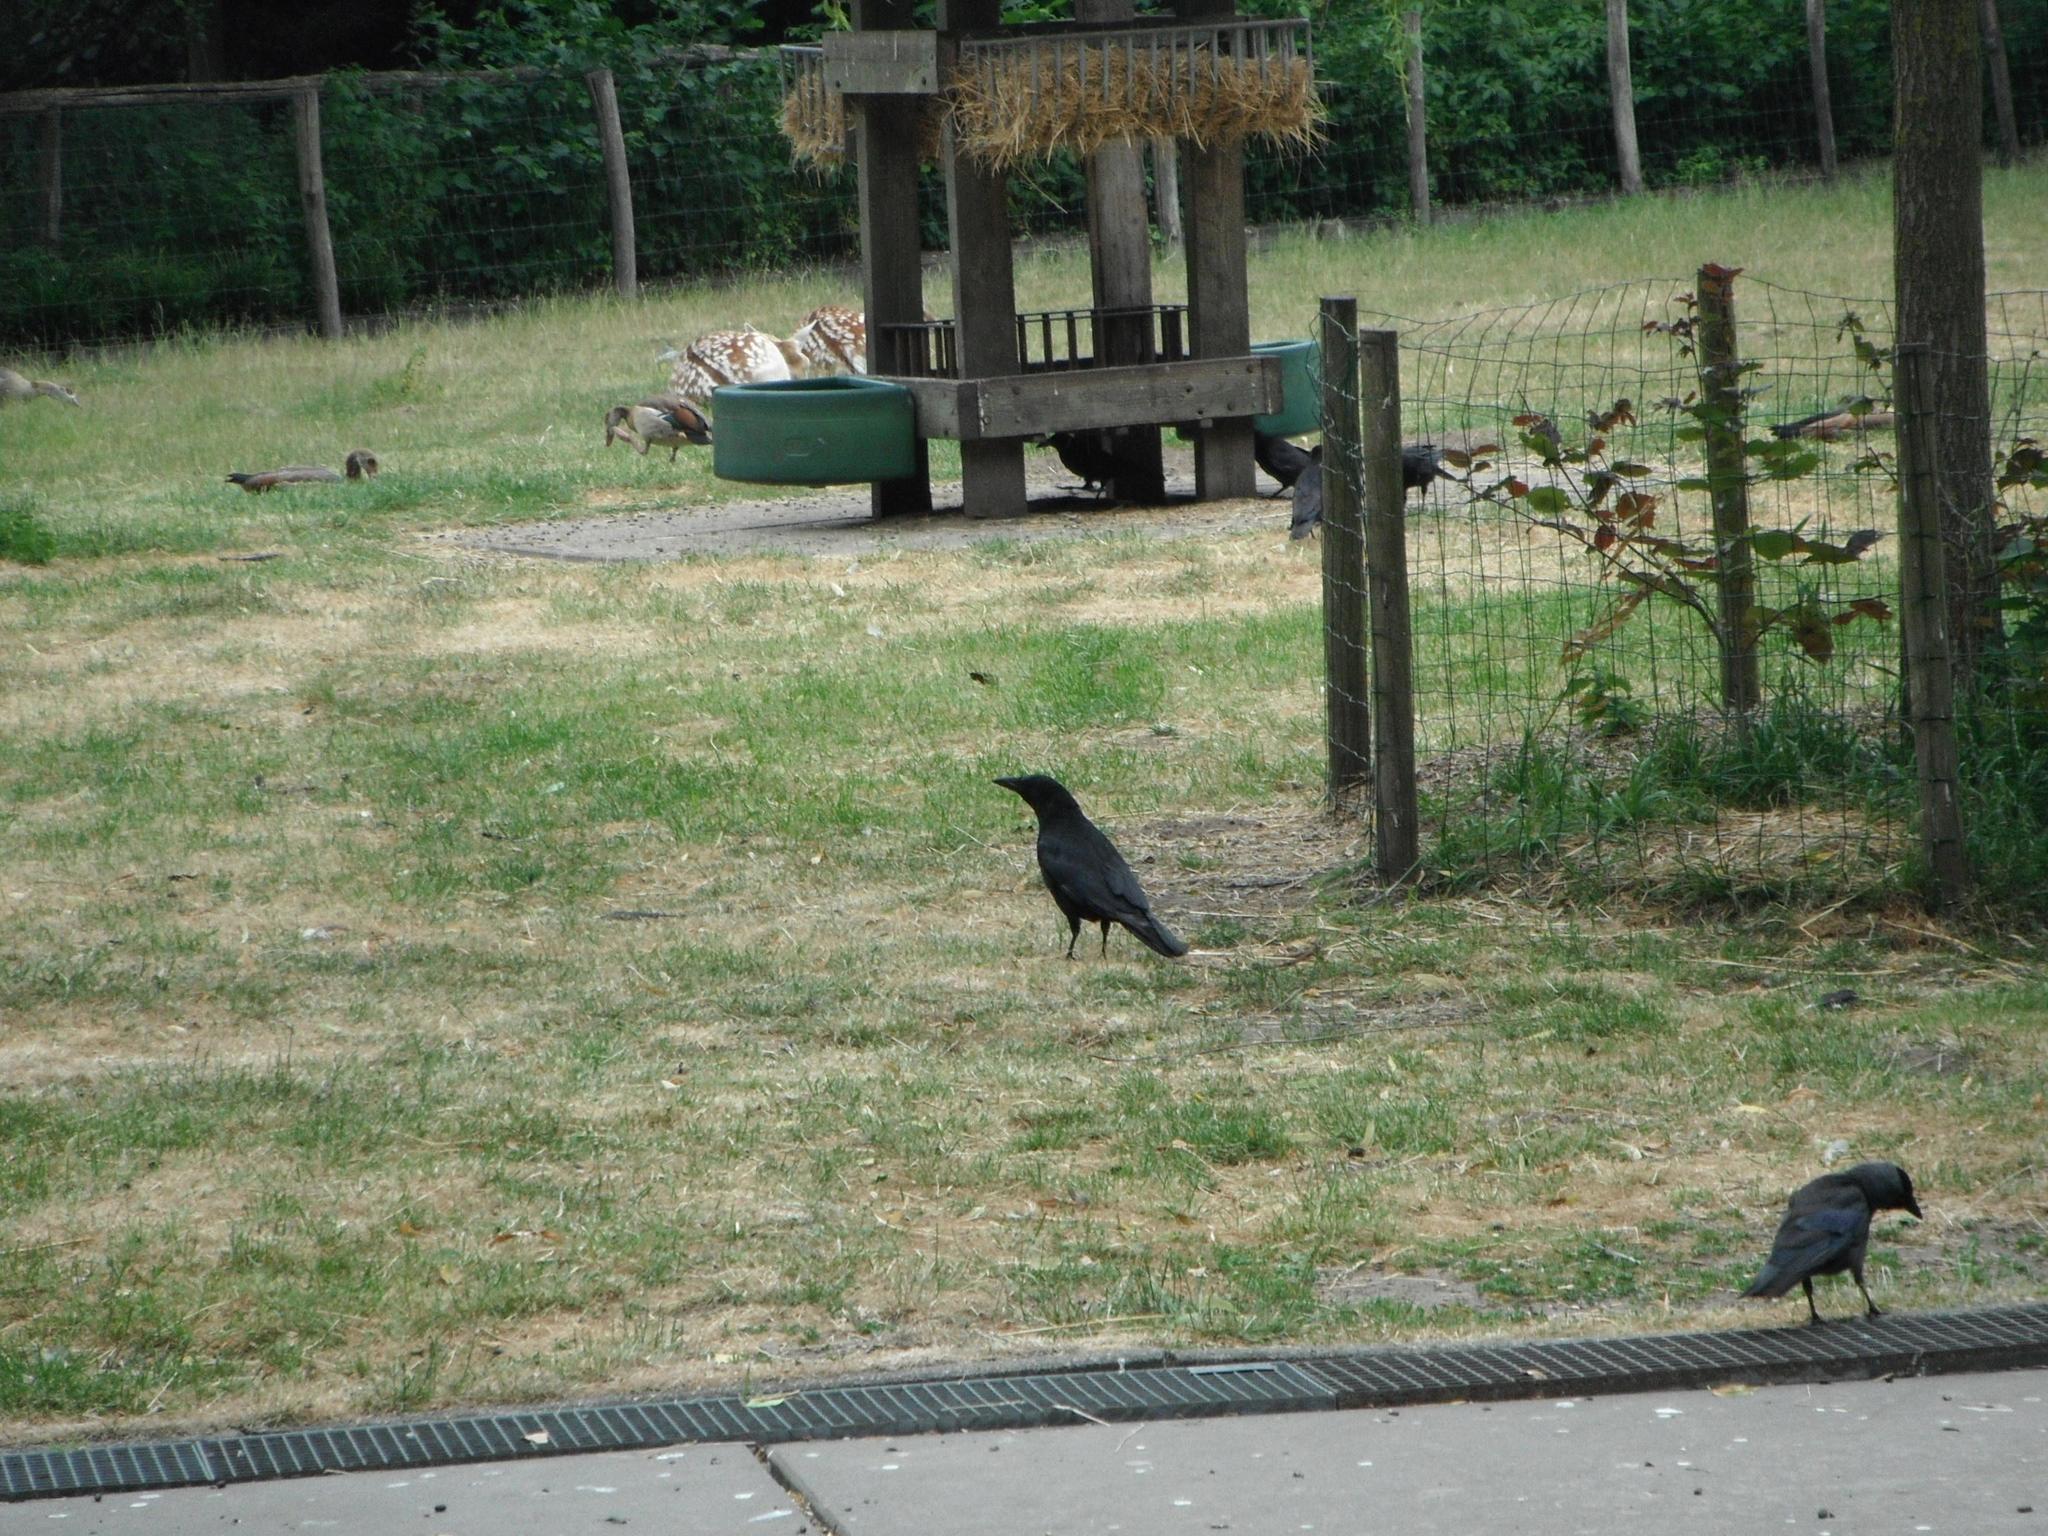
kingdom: Animalia
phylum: Chordata
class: Aves
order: Passeriformes
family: Corvidae
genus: Corvus
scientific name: Corvus corone
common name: Carrion crow
